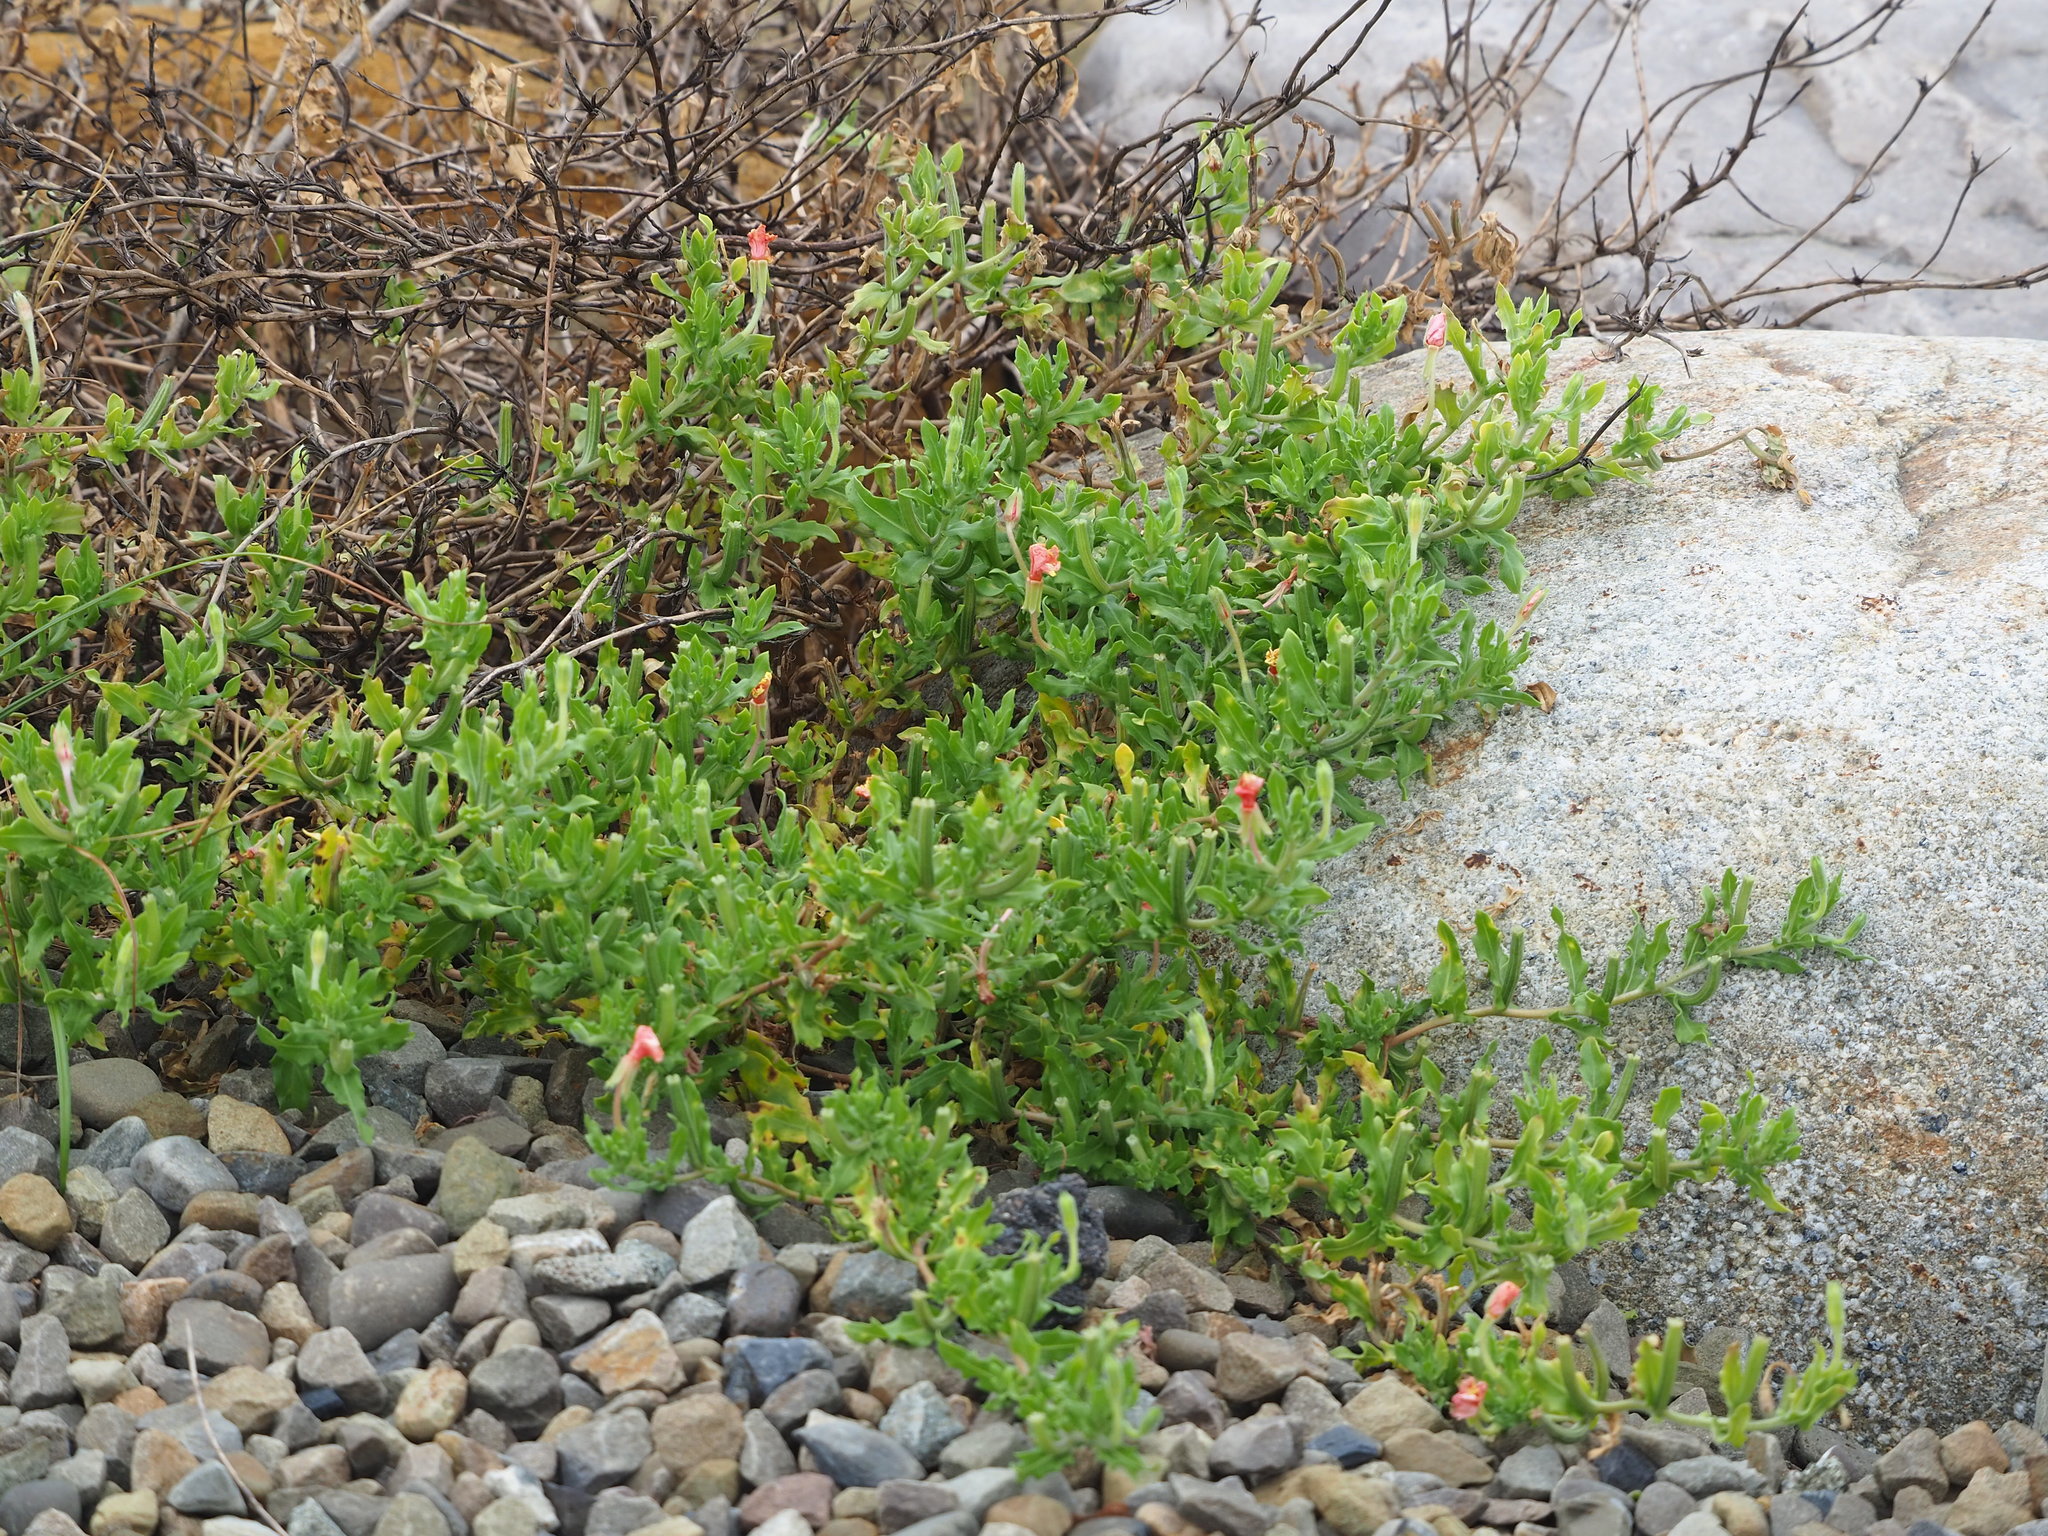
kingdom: Plantae
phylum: Tracheophyta
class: Magnoliopsida
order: Myrtales
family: Onagraceae
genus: Oenothera
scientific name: Oenothera laciniata
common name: Cut-leaved evening-primrose
